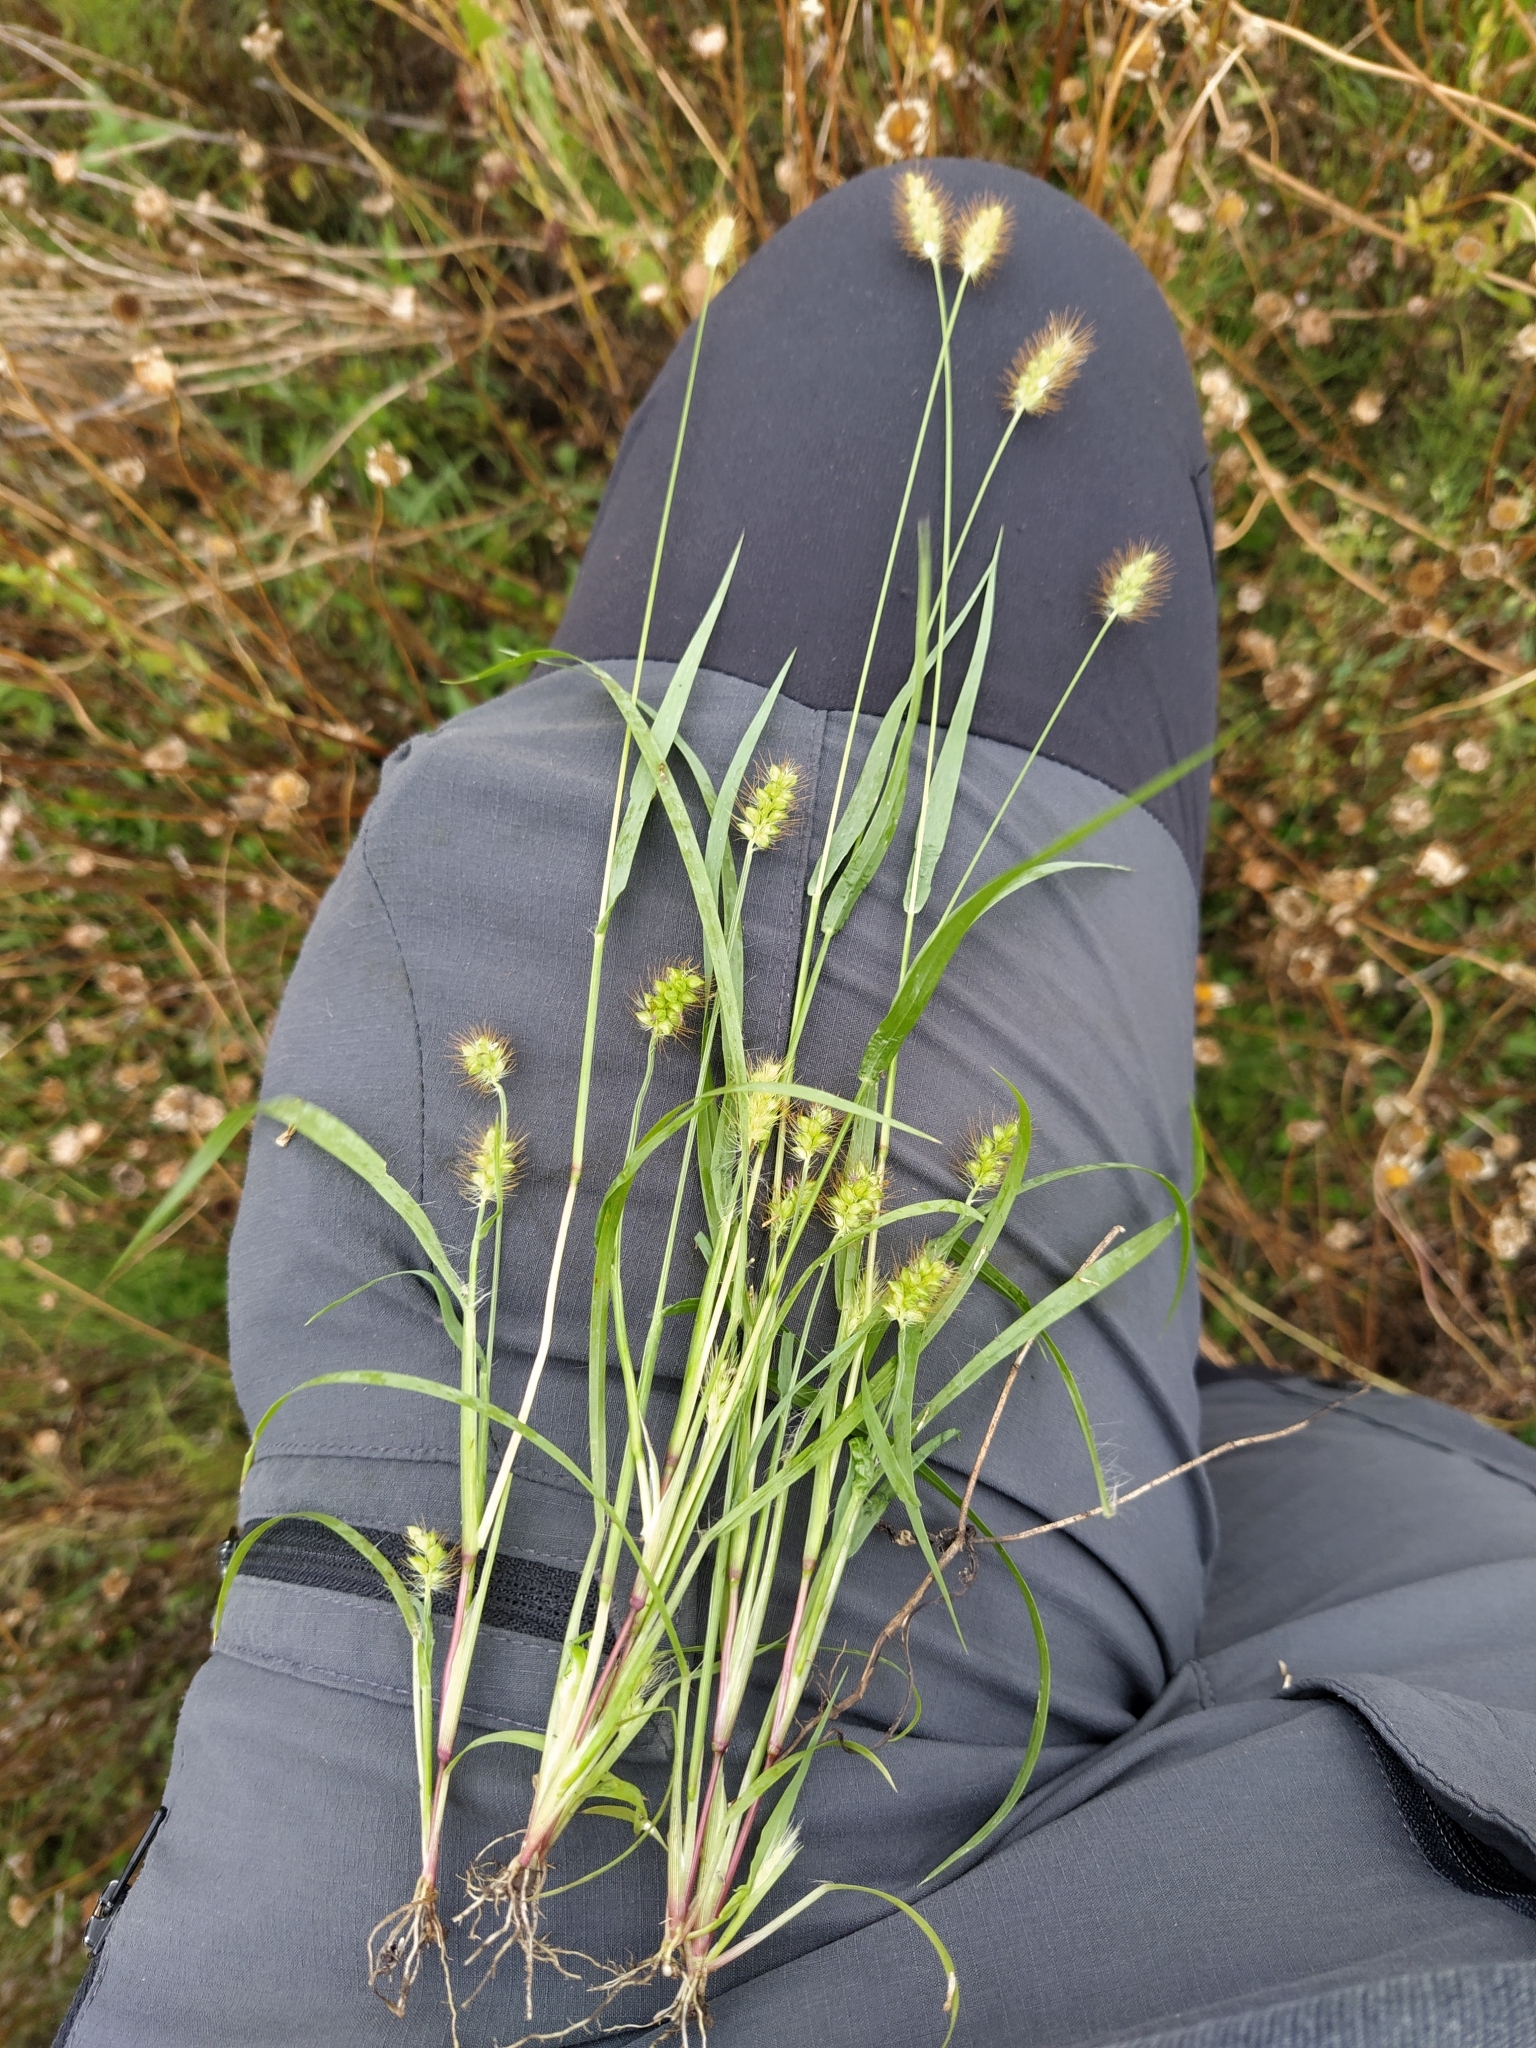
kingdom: Plantae
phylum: Tracheophyta
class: Liliopsida
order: Poales
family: Poaceae
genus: Setaria
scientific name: Setaria pumila
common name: Yellow bristle-grass
